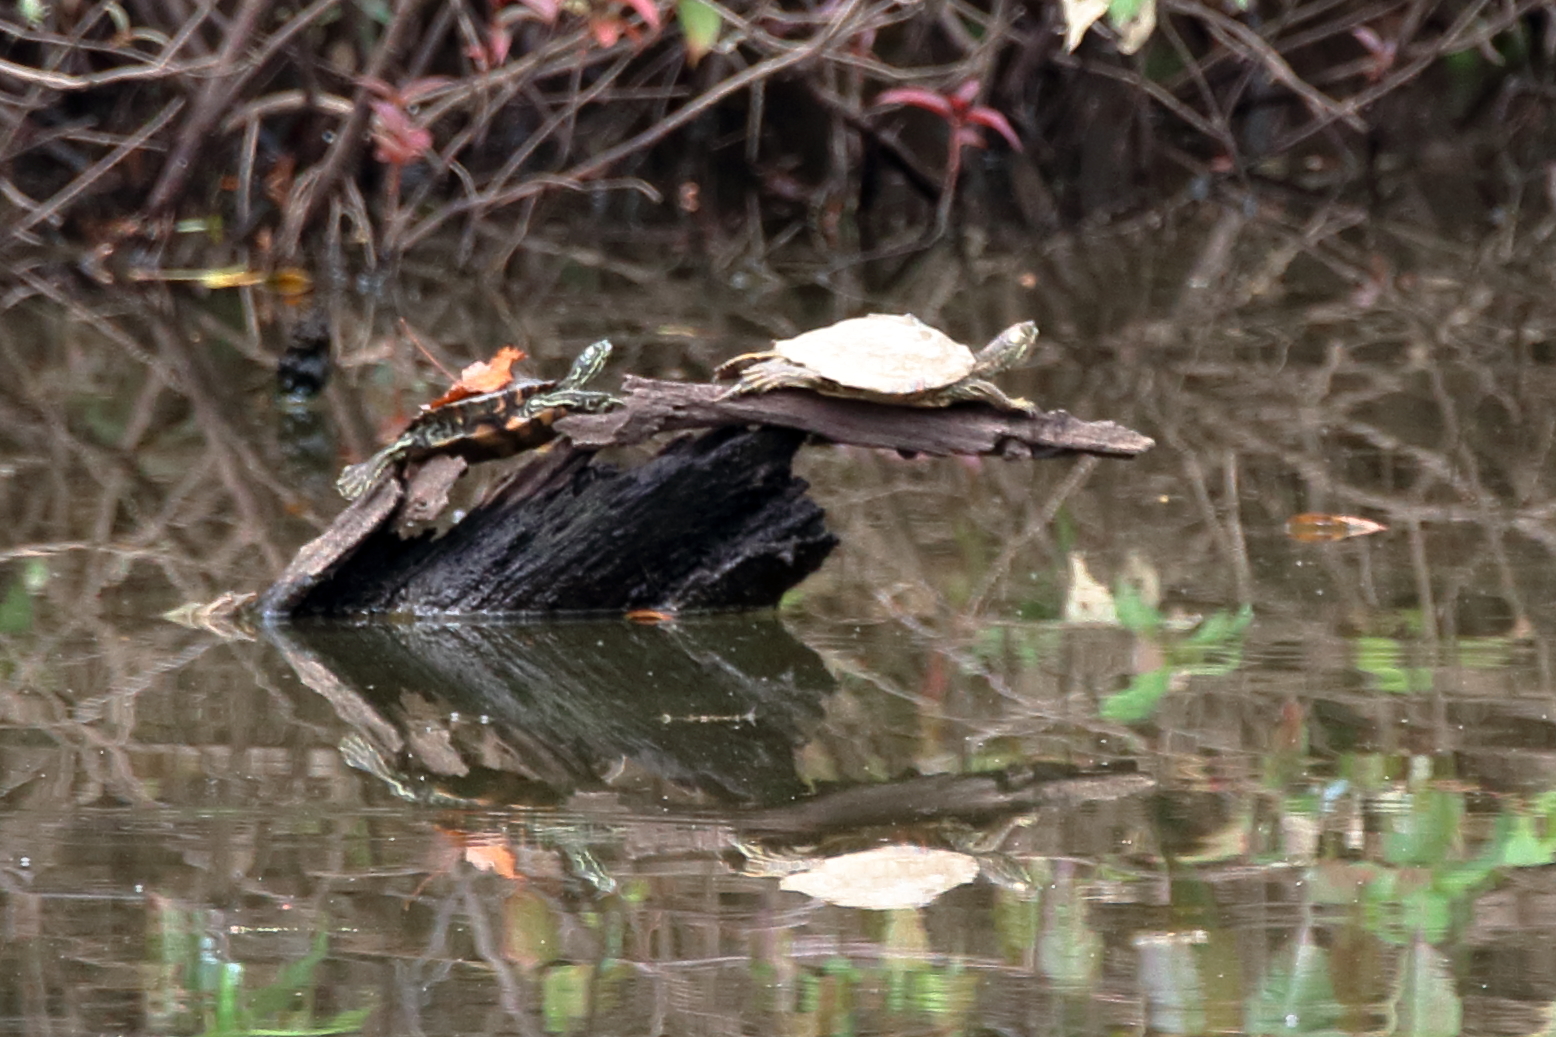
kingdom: Animalia
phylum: Chordata
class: Testudines
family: Emydidae
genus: Graptemys
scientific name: Graptemys oculifera
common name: Ringed map turtle
